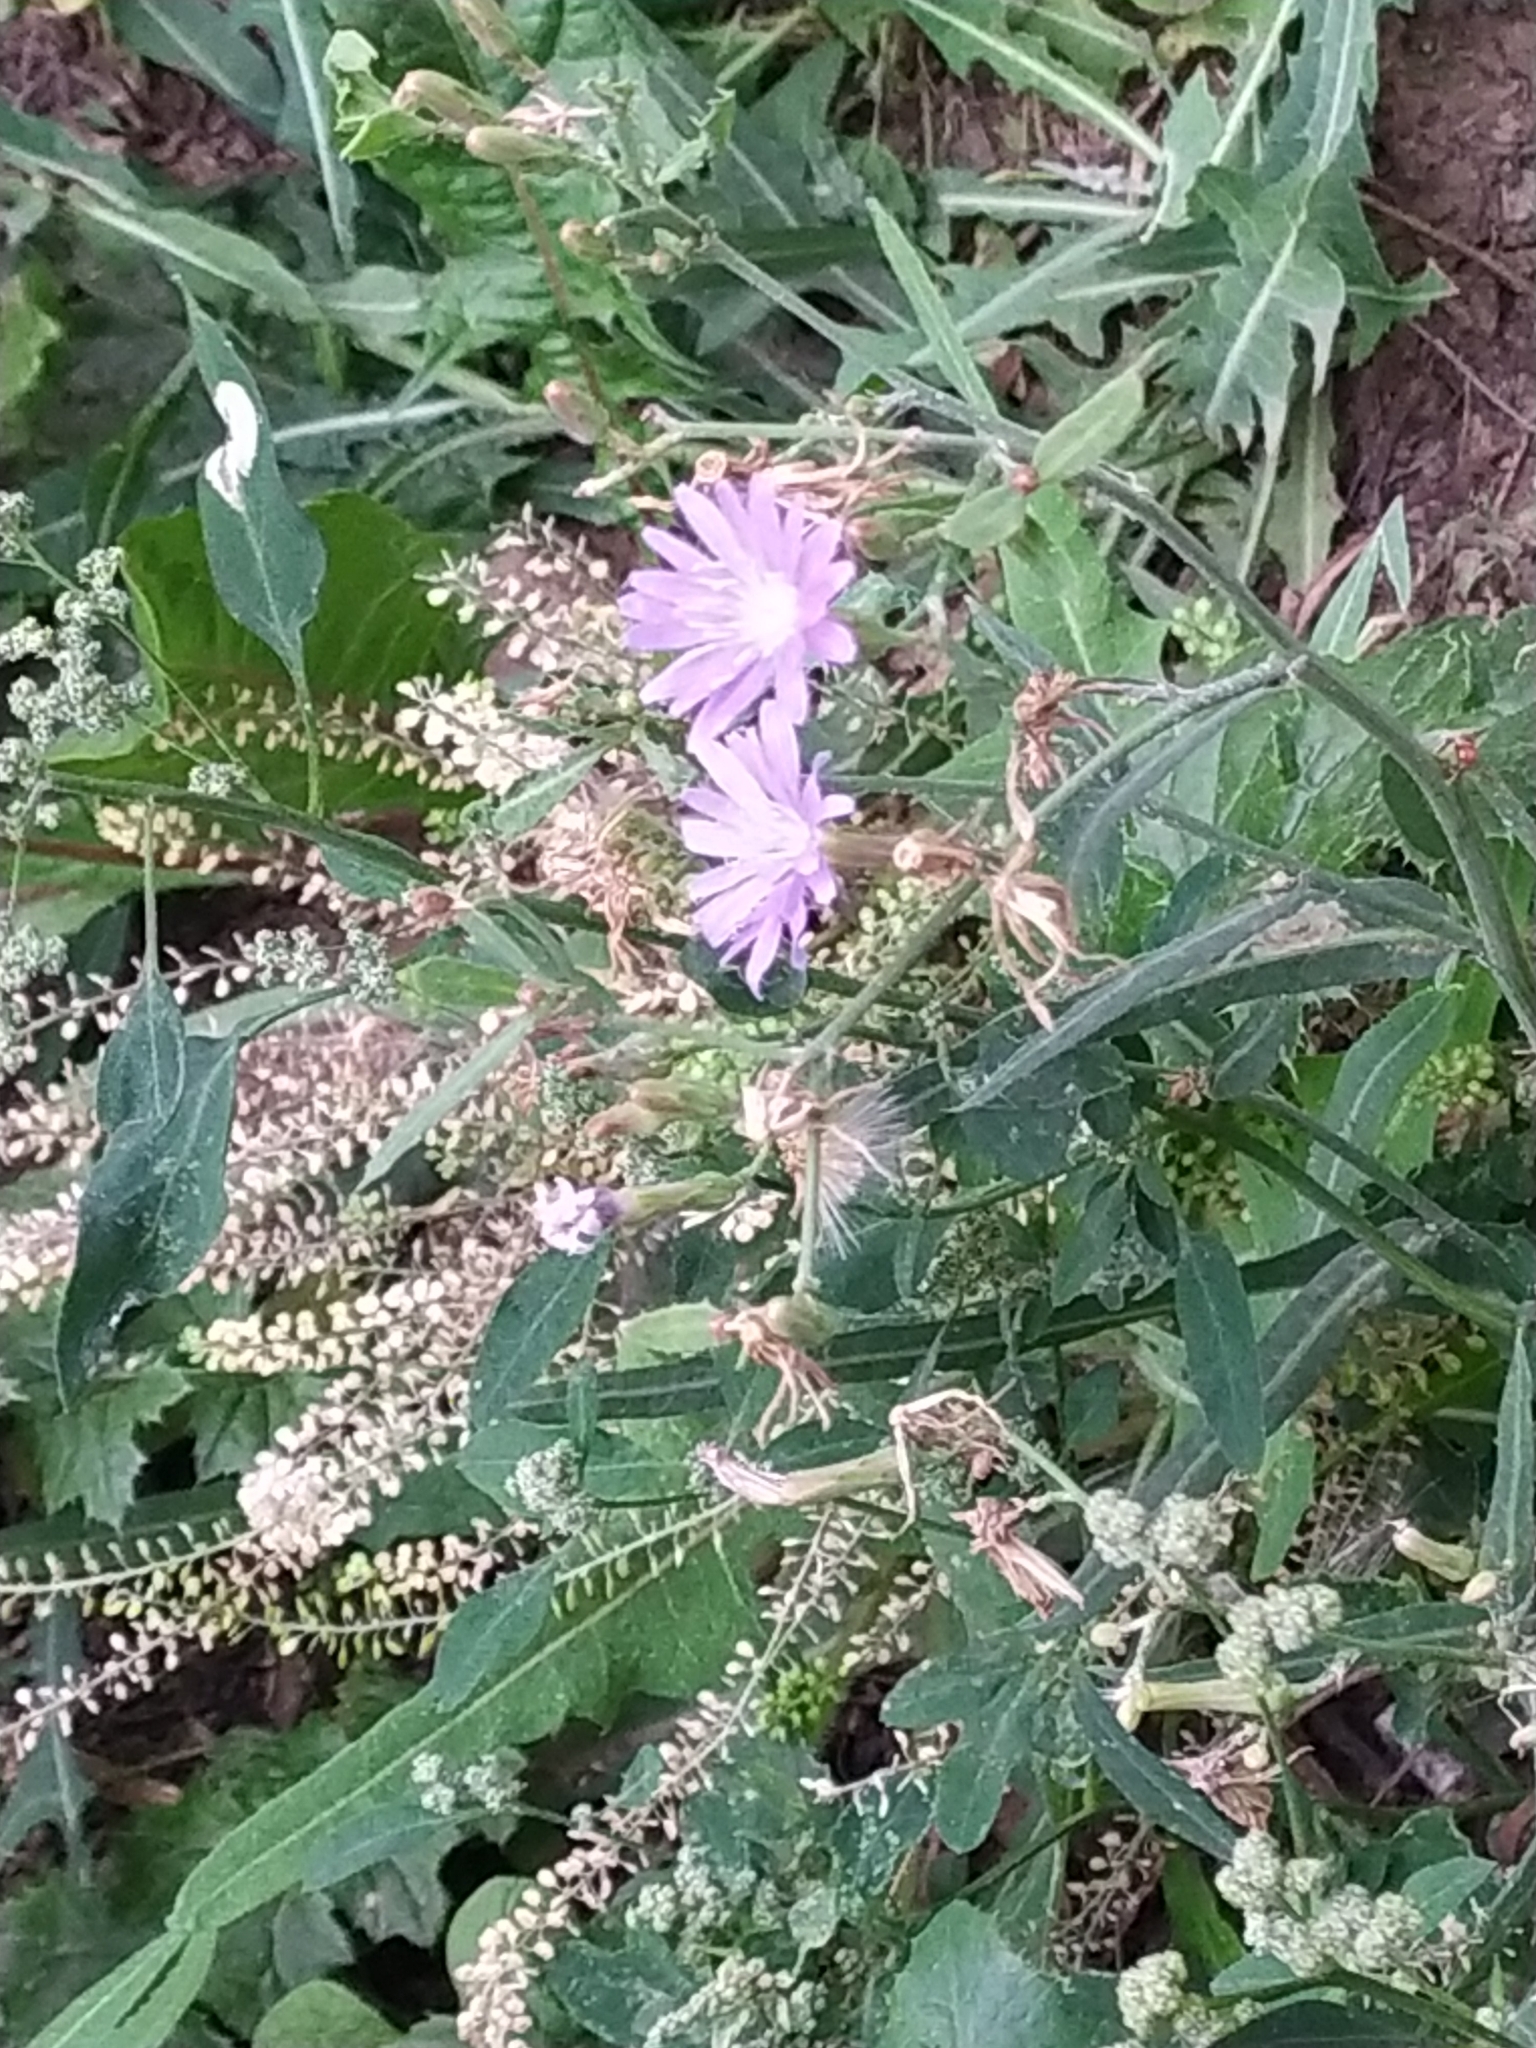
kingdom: Plantae
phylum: Tracheophyta
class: Magnoliopsida
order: Asterales
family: Asteraceae
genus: Lactuca
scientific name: Lactuca tatarica
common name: Blue lettuce
